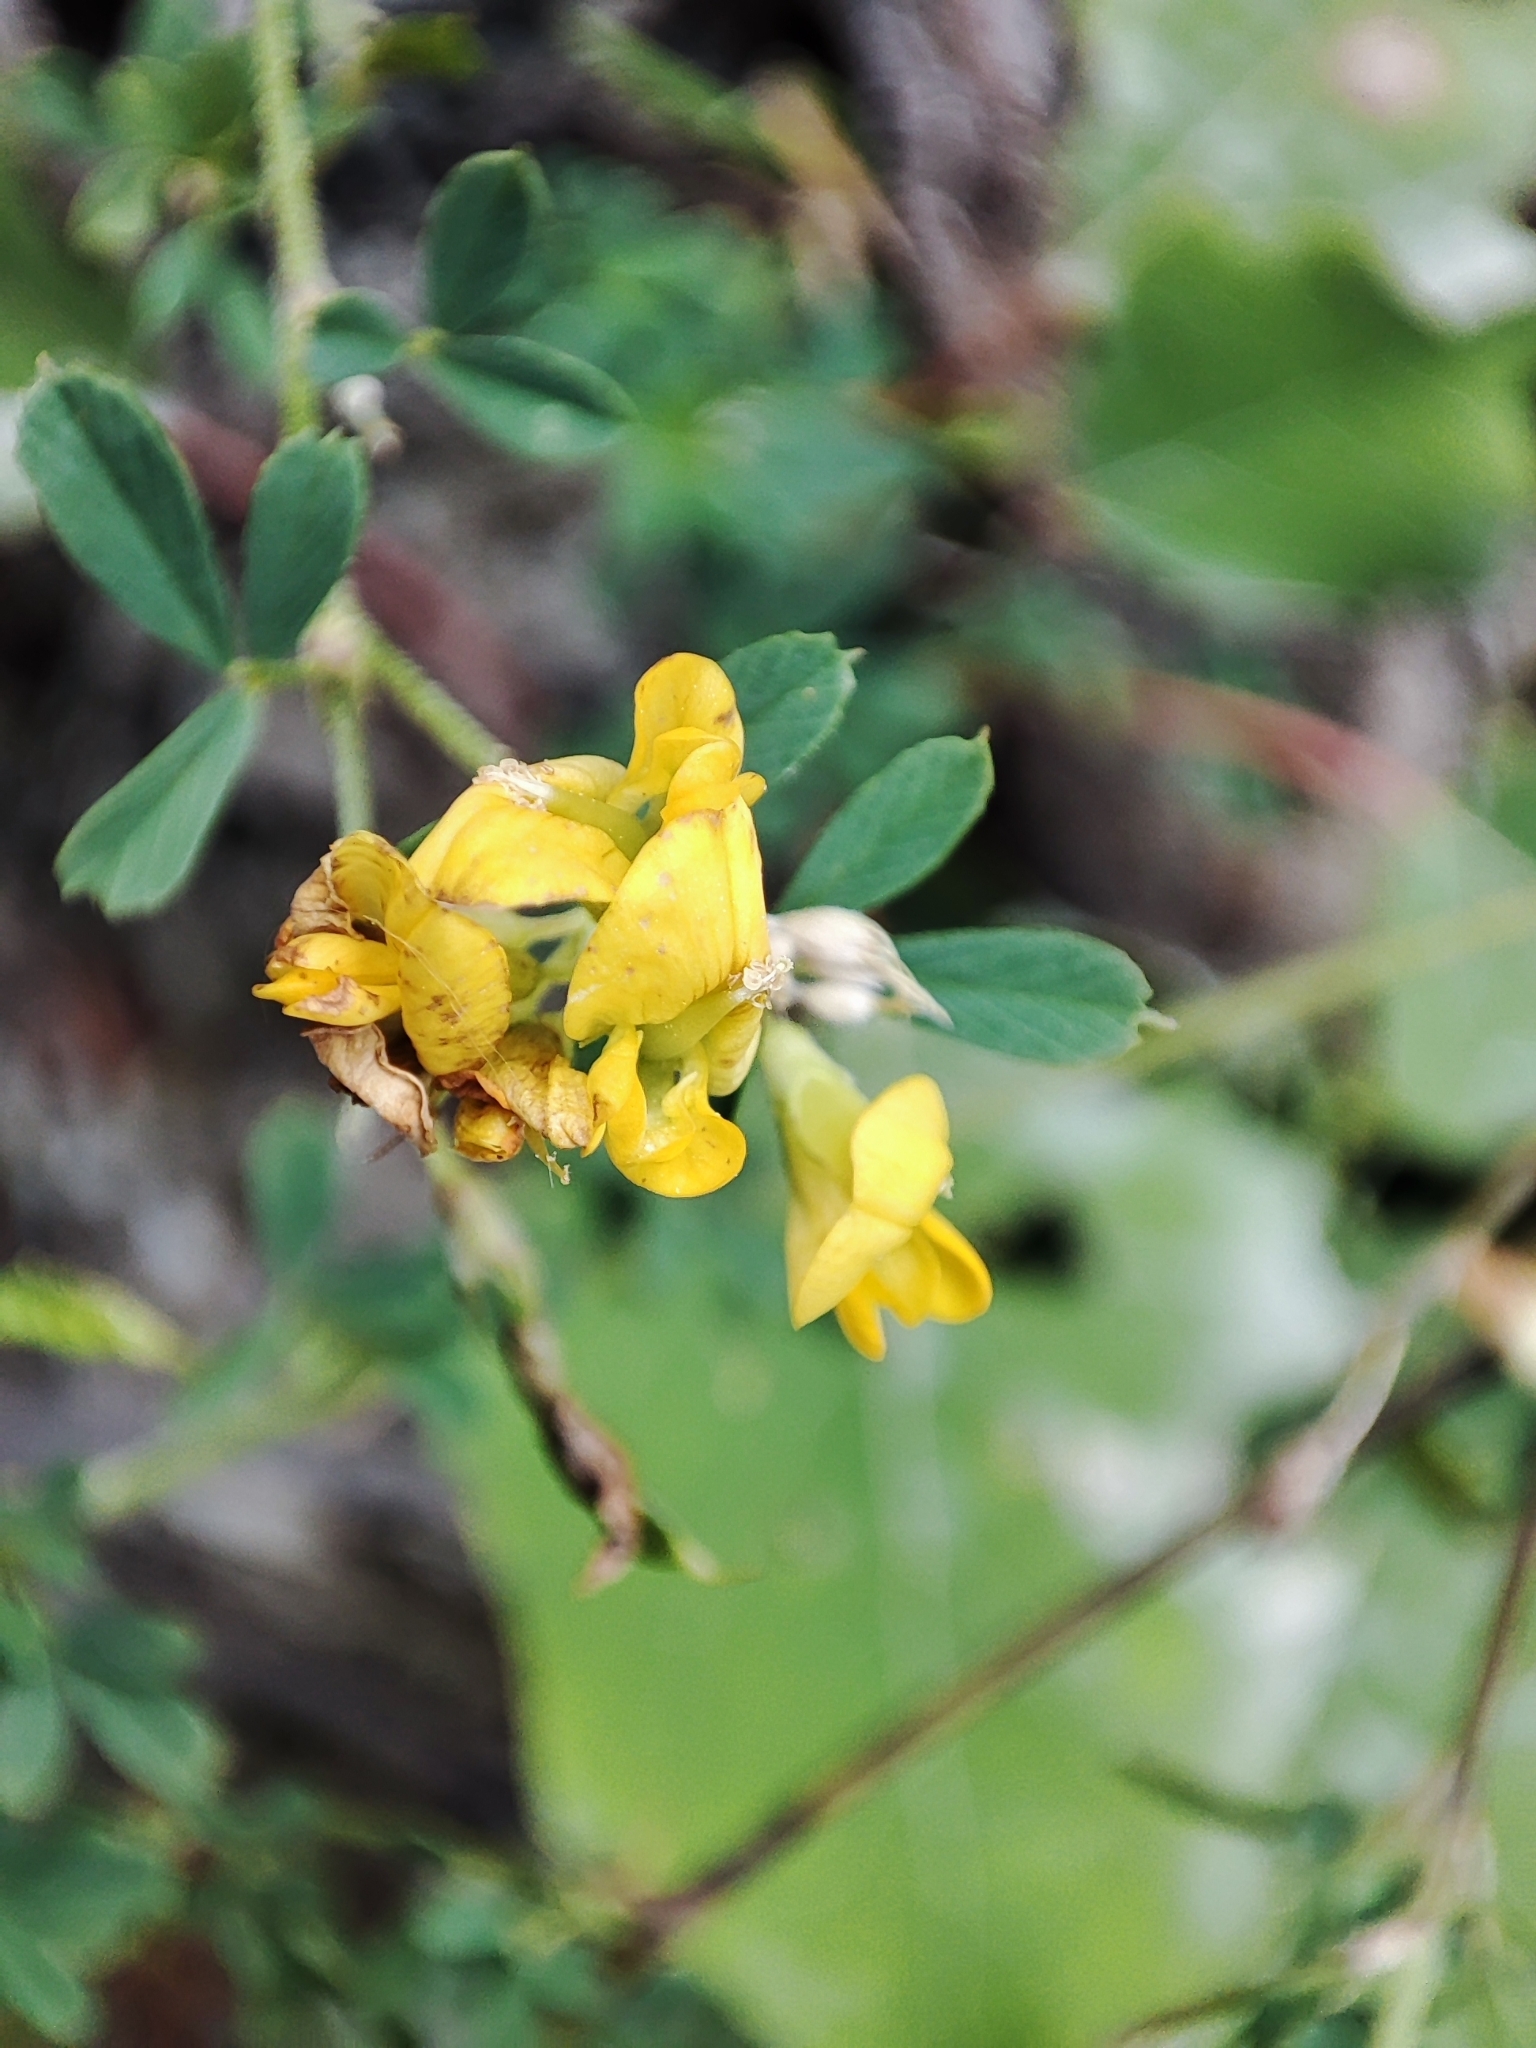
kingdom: Plantae
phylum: Tracheophyta
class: Magnoliopsida
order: Fabales
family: Fabaceae
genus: Medicago
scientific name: Medicago falcata
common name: Sickle medick
